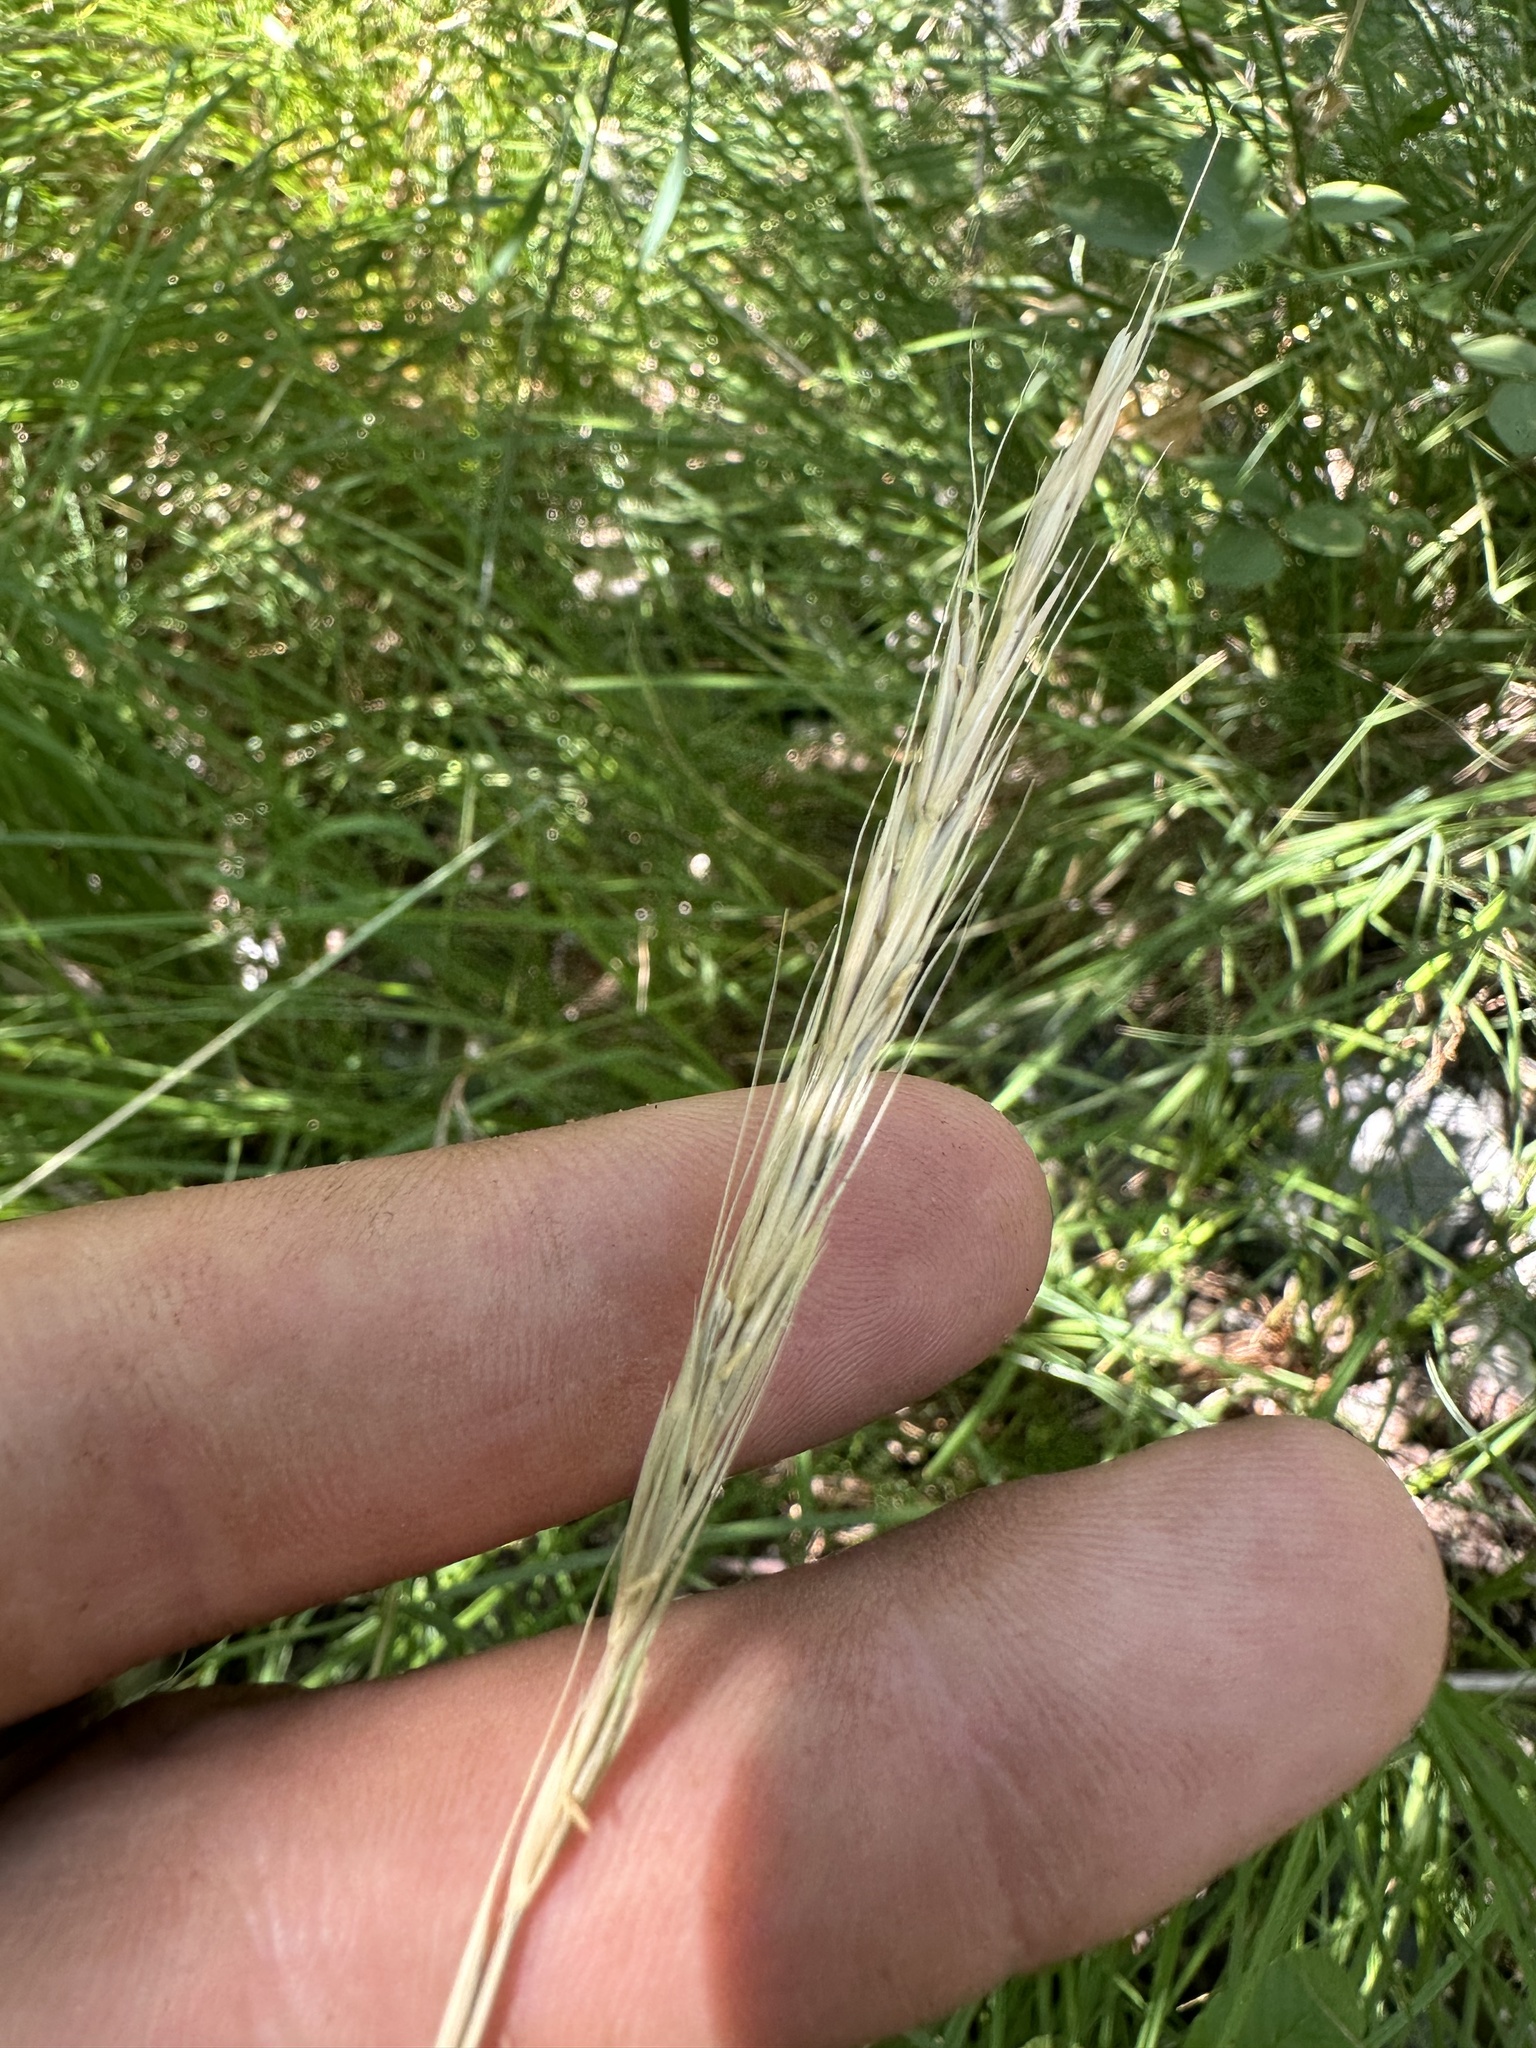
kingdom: Plantae
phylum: Tracheophyta
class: Liliopsida
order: Poales
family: Poaceae
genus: Elymus
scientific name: Elymus glaucus
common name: Blue wild rye
